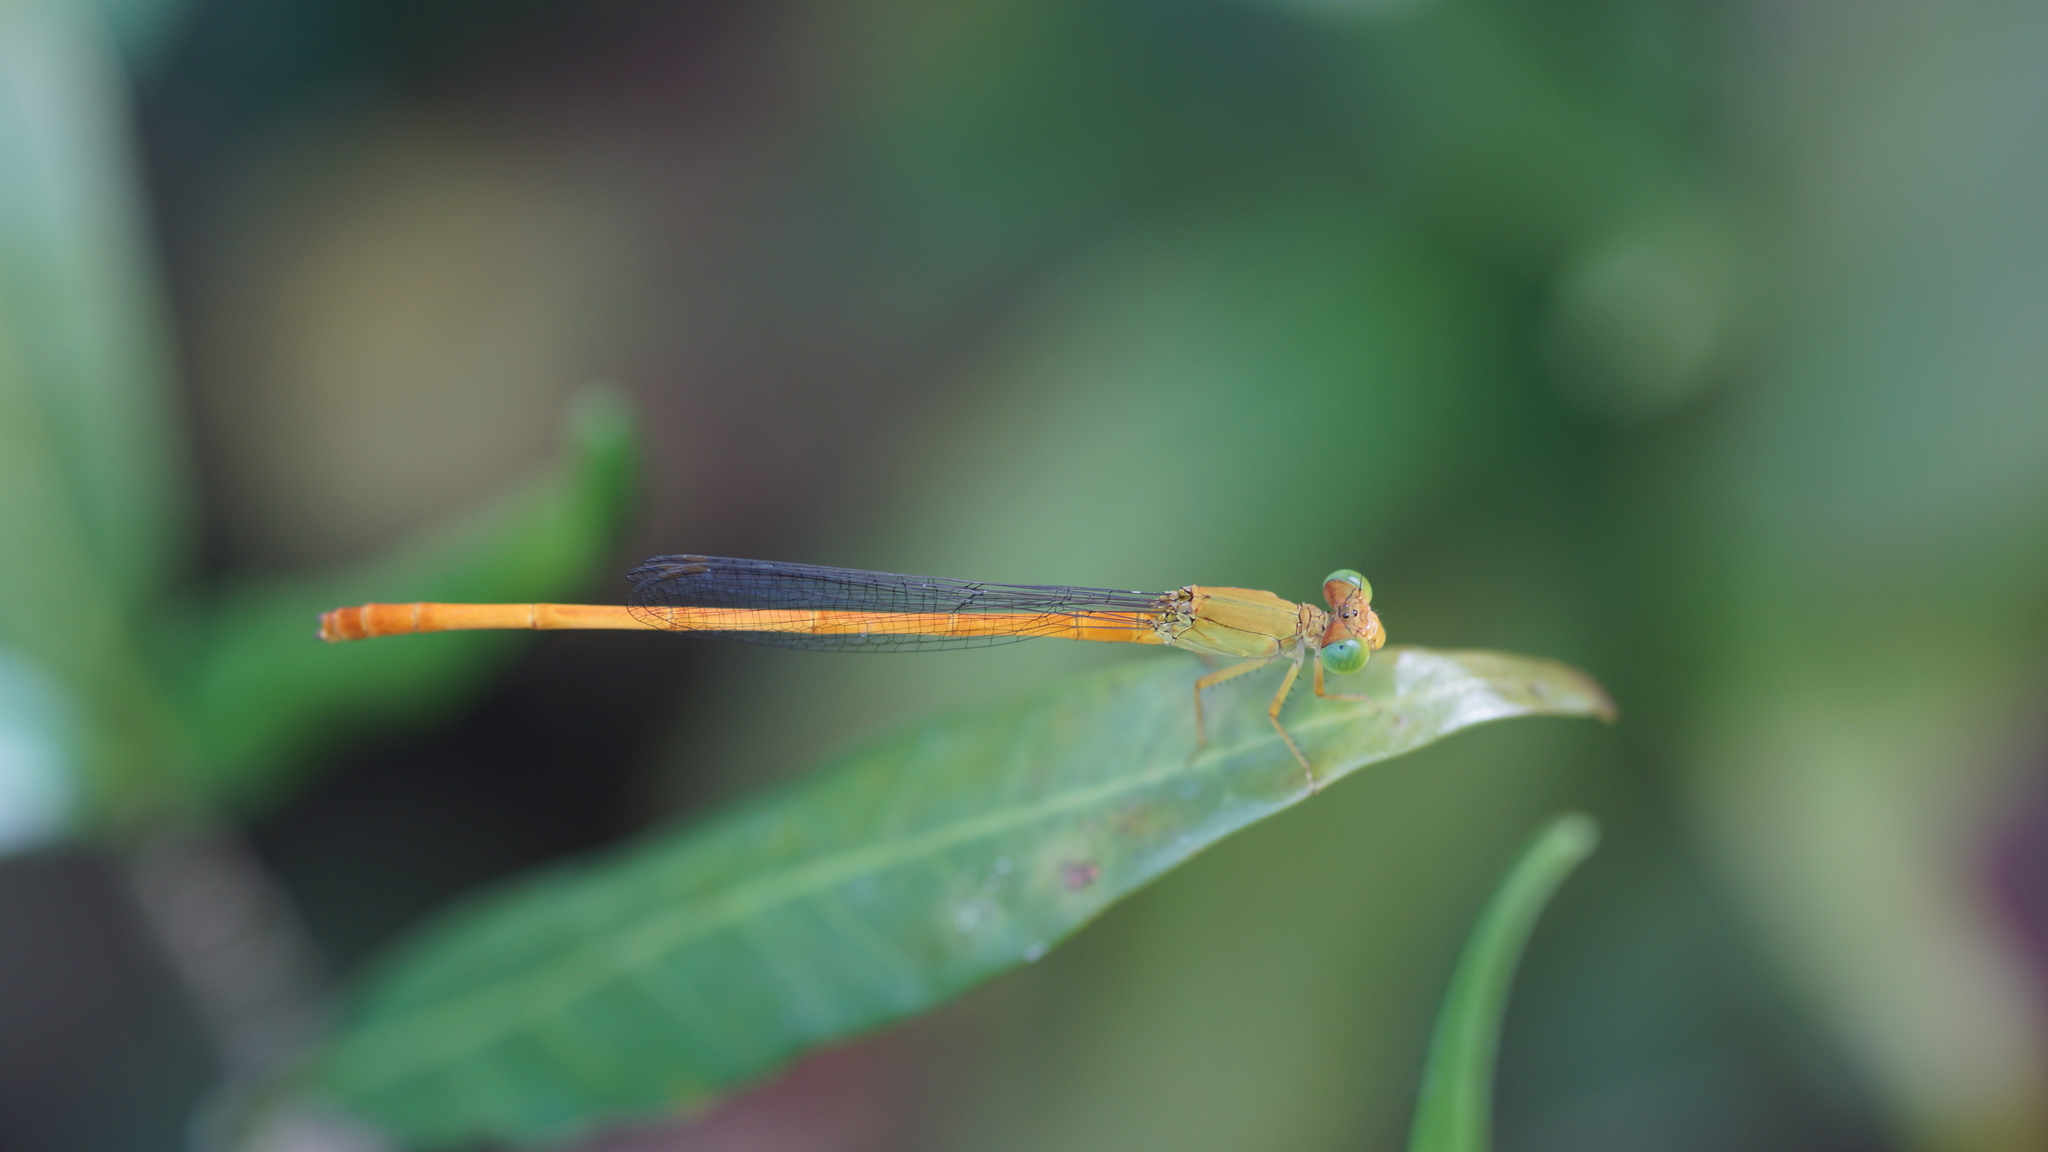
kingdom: Animalia
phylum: Arthropoda
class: Insecta
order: Odonata
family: Coenagrionidae
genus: Ceriagrion
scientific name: Ceriagrion calamineum
